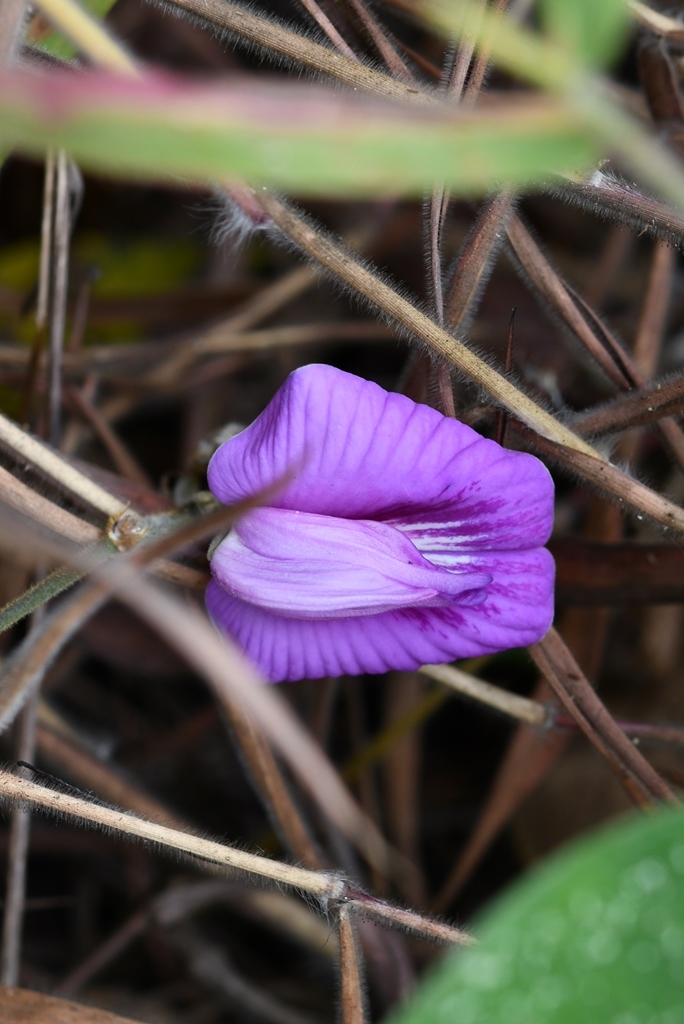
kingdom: Plantae
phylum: Tracheophyta
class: Magnoliopsida
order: Fabales
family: Fabaceae
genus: Centrosema
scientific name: Centrosema virginianum
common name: Butterfly-pea
